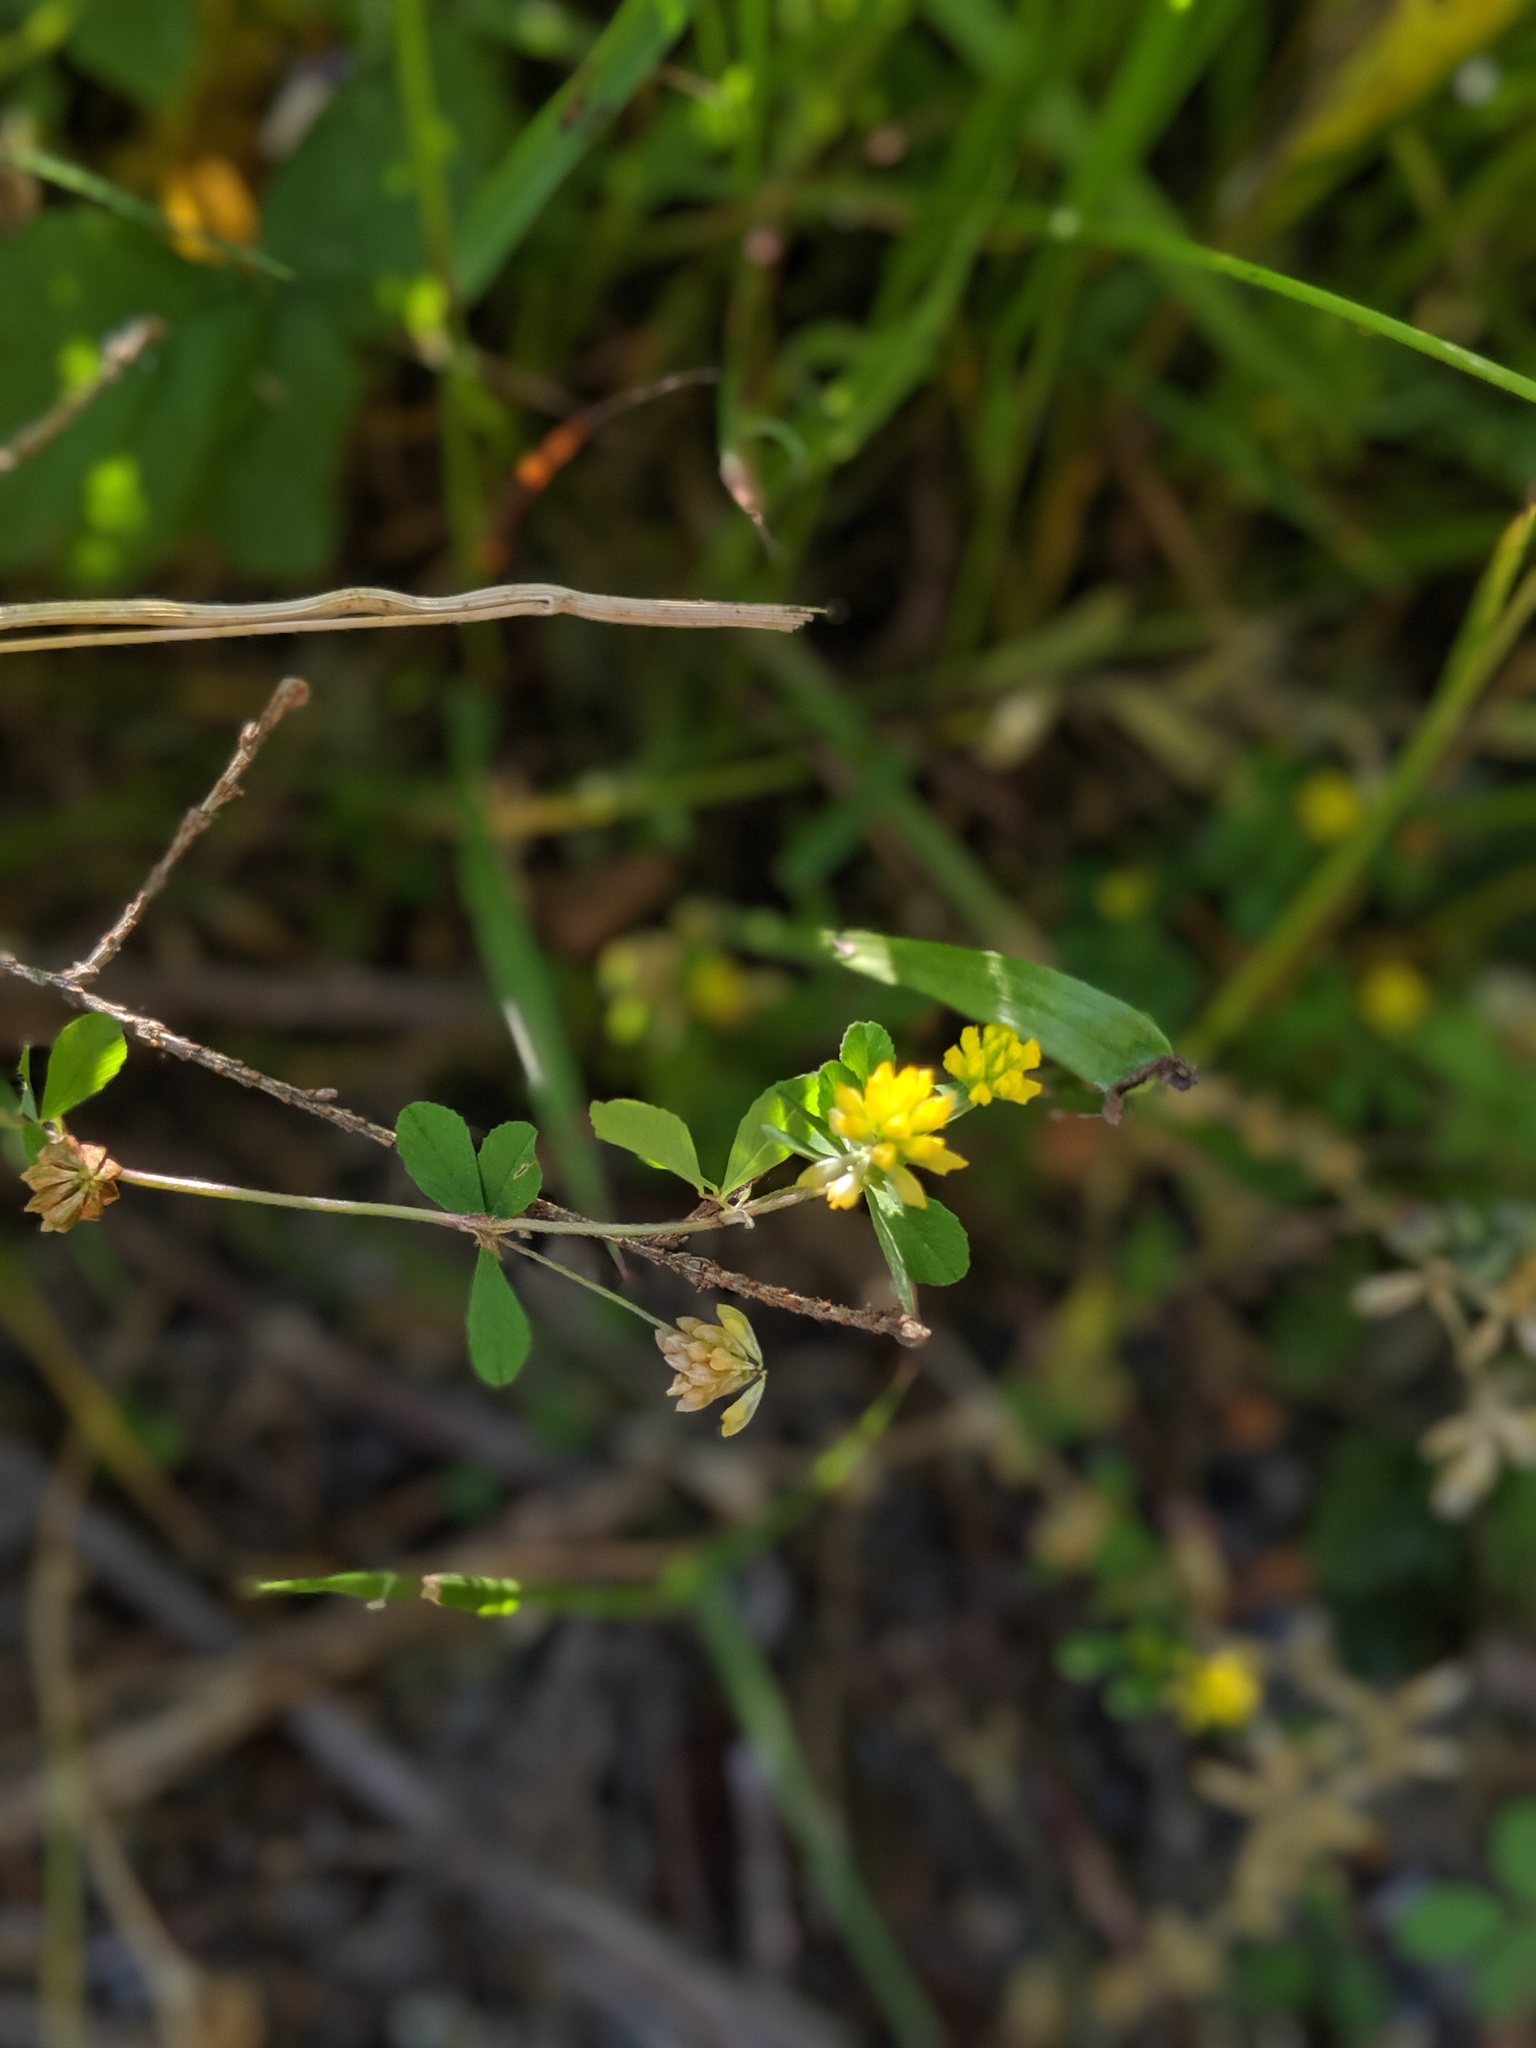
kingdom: Plantae
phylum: Tracheophyta
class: Magnoliopsida
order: Fabales
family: Fabaceae
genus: Trifolium
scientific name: Trifolium dubium
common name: Suckling clover
